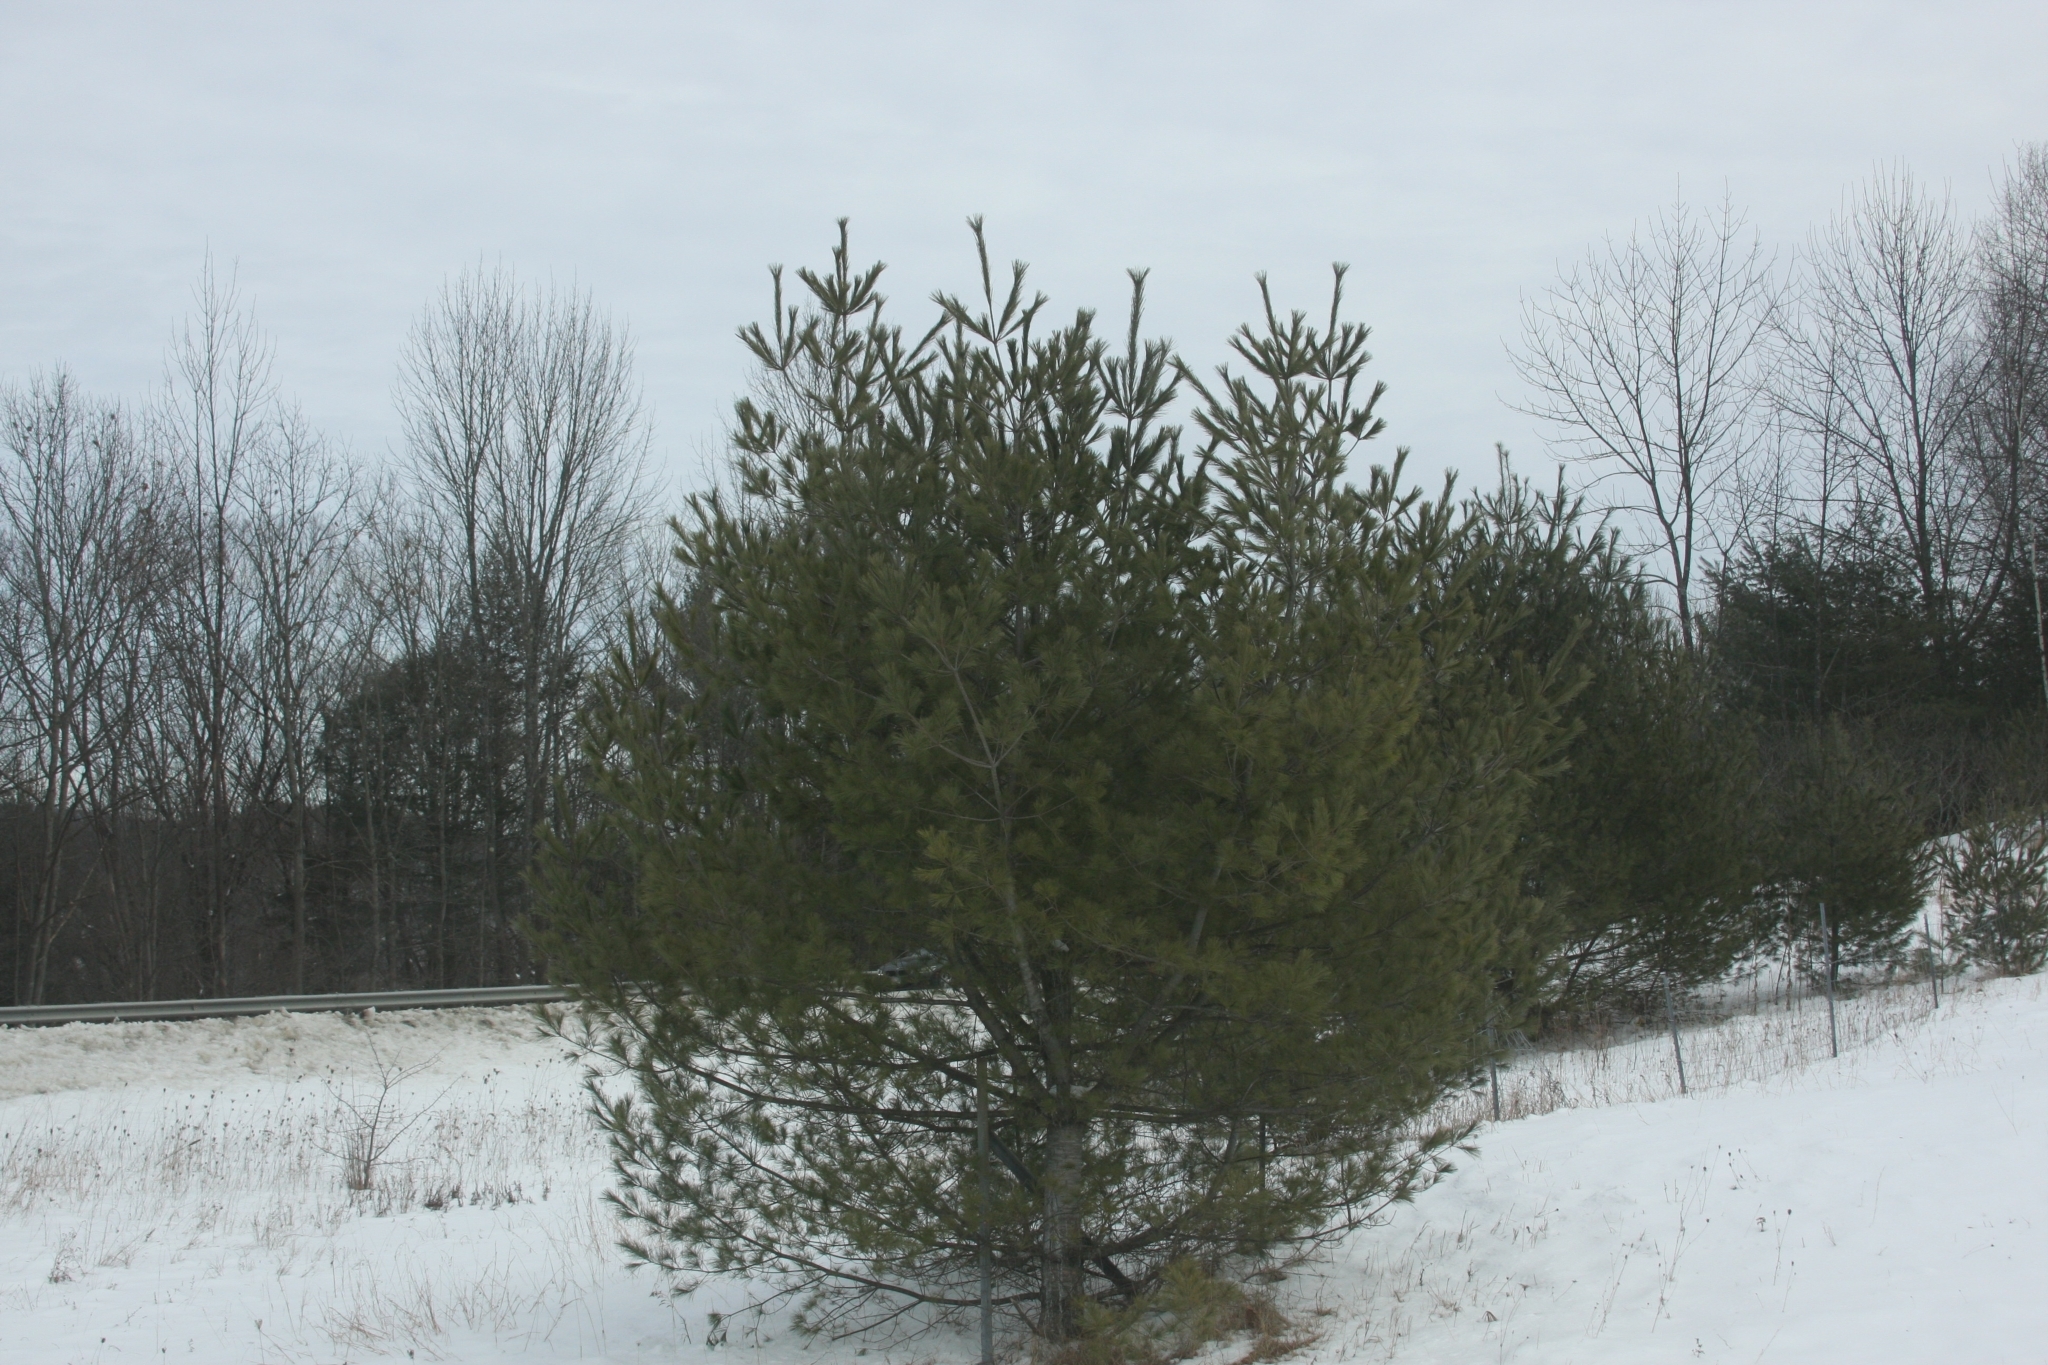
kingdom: Plantae
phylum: Tracheophyta
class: Pinopsida
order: Pinales
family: Pinaceae
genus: Pinus
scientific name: Pinus strobus
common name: Weymouth pine
